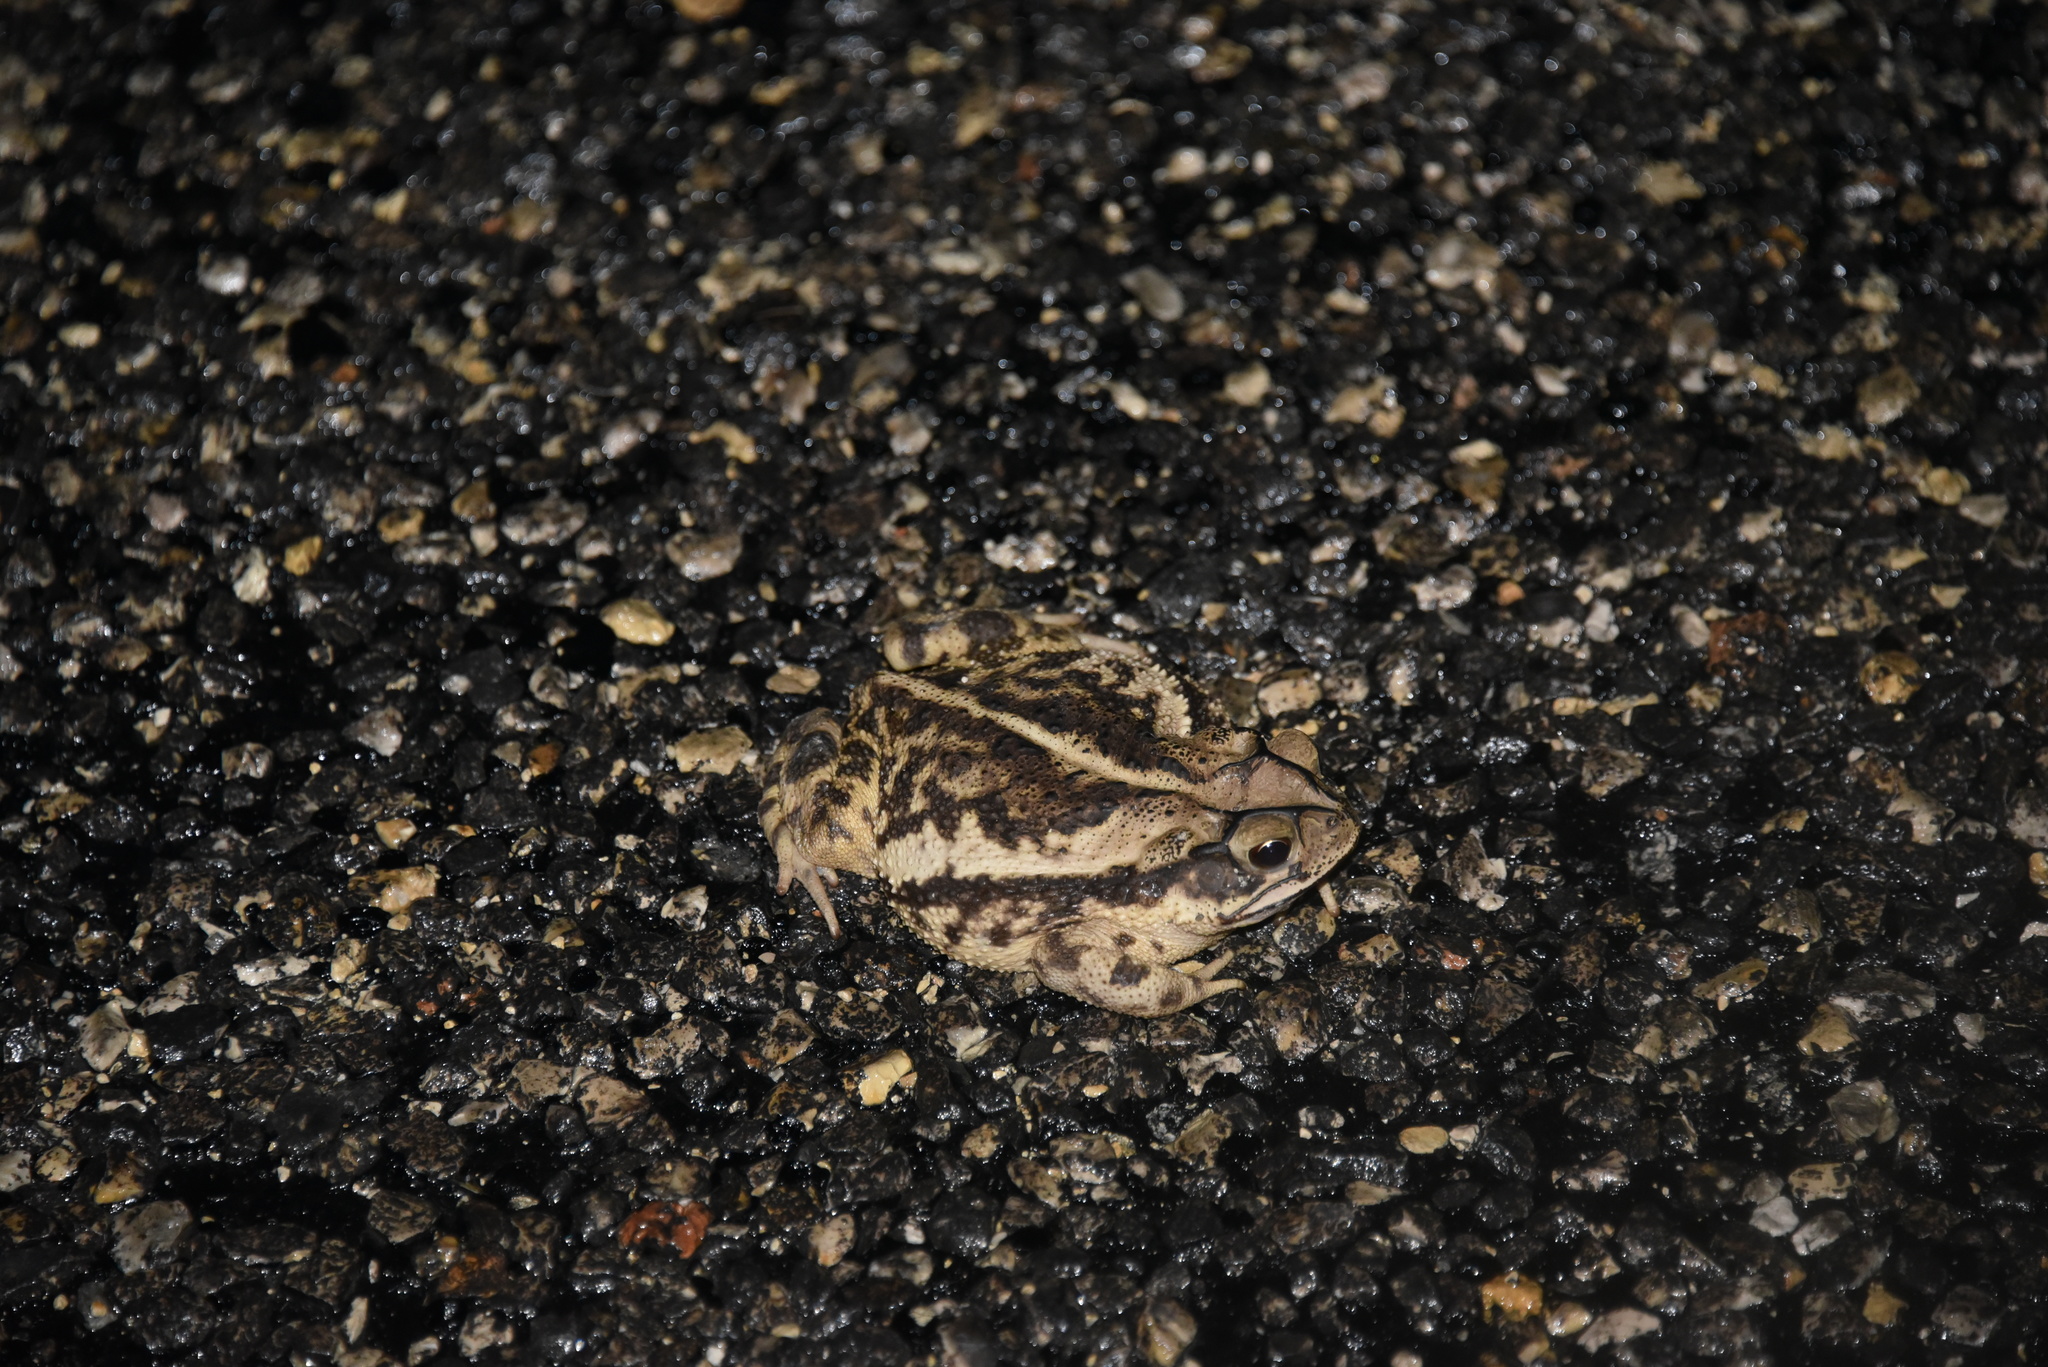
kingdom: Animalia
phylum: Chordata
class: Amphibia
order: Anura
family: Bufonidae
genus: Incilius
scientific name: Incilius nebulifer
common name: Gulf coast toad
